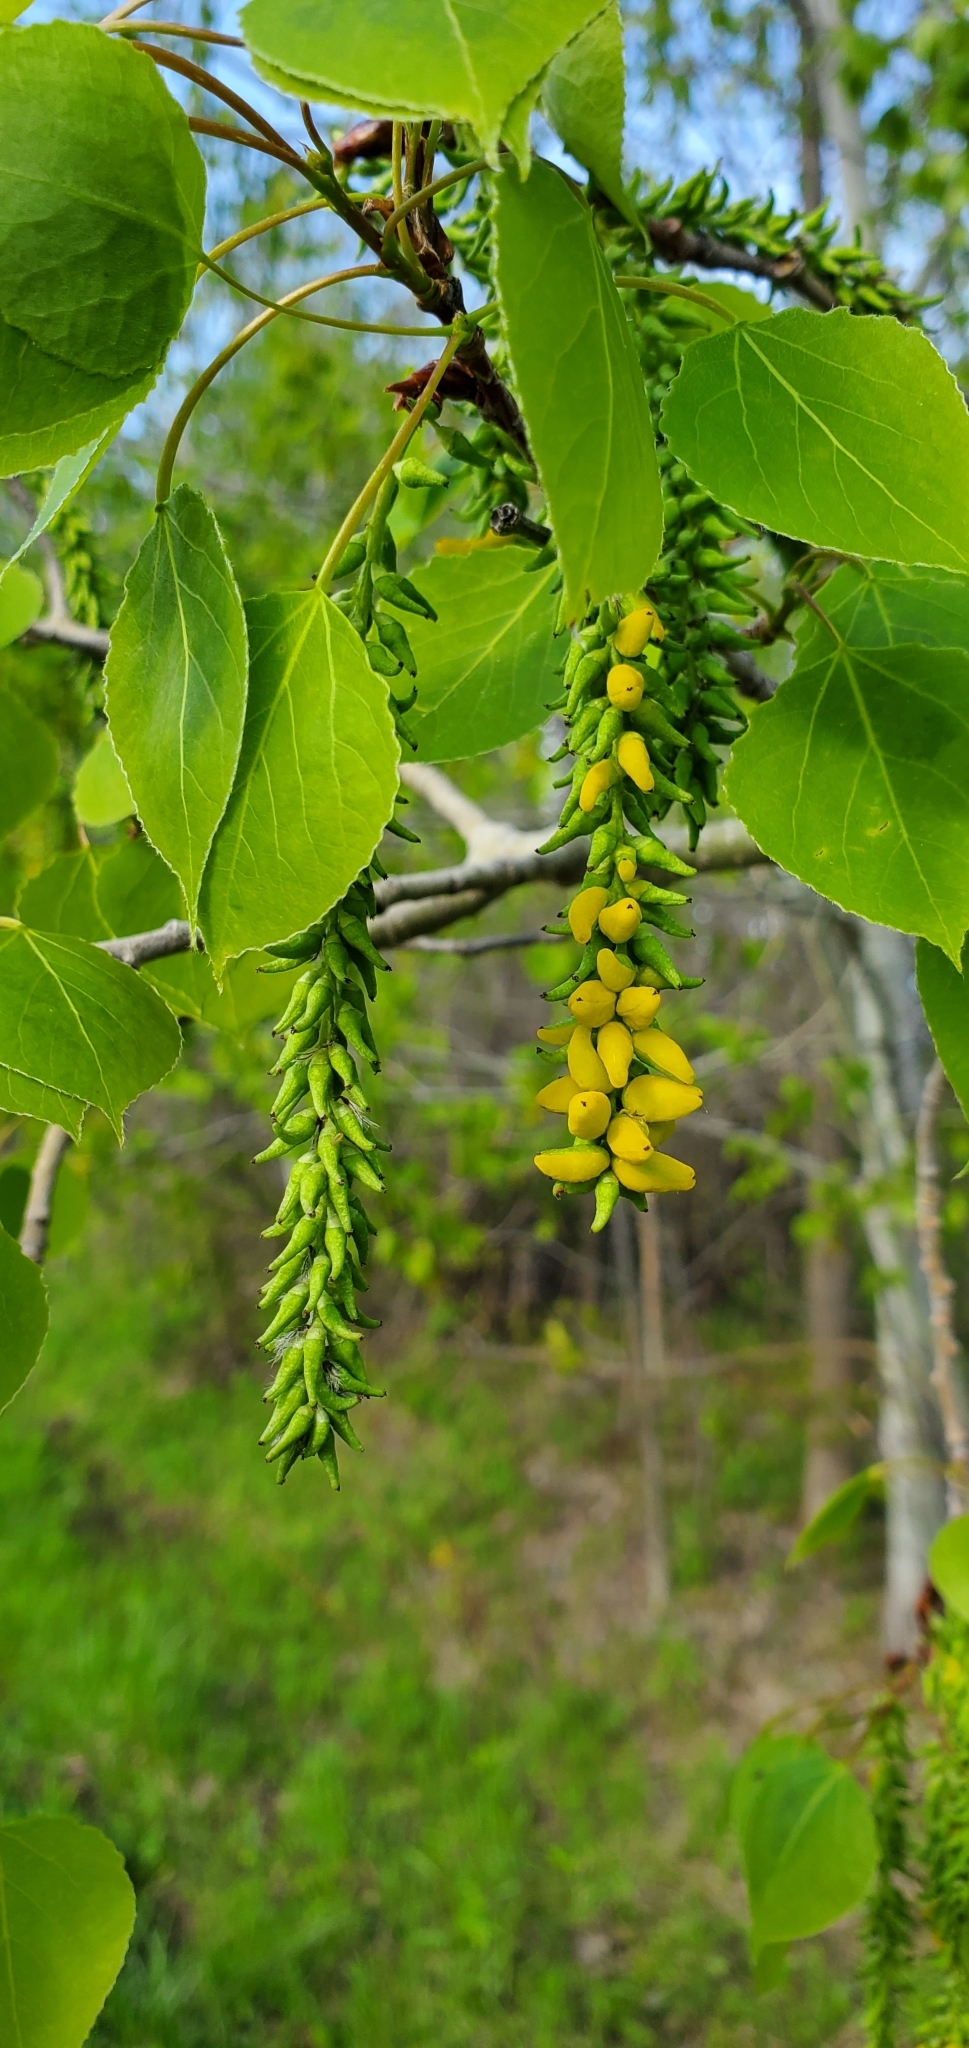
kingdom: Fungi
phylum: Ascomycota
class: Taphrinomycetes
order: Taphrinales
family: Taphrinaceae
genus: Taphrina
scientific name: Taphrina johansonii
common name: Aspen tongue
